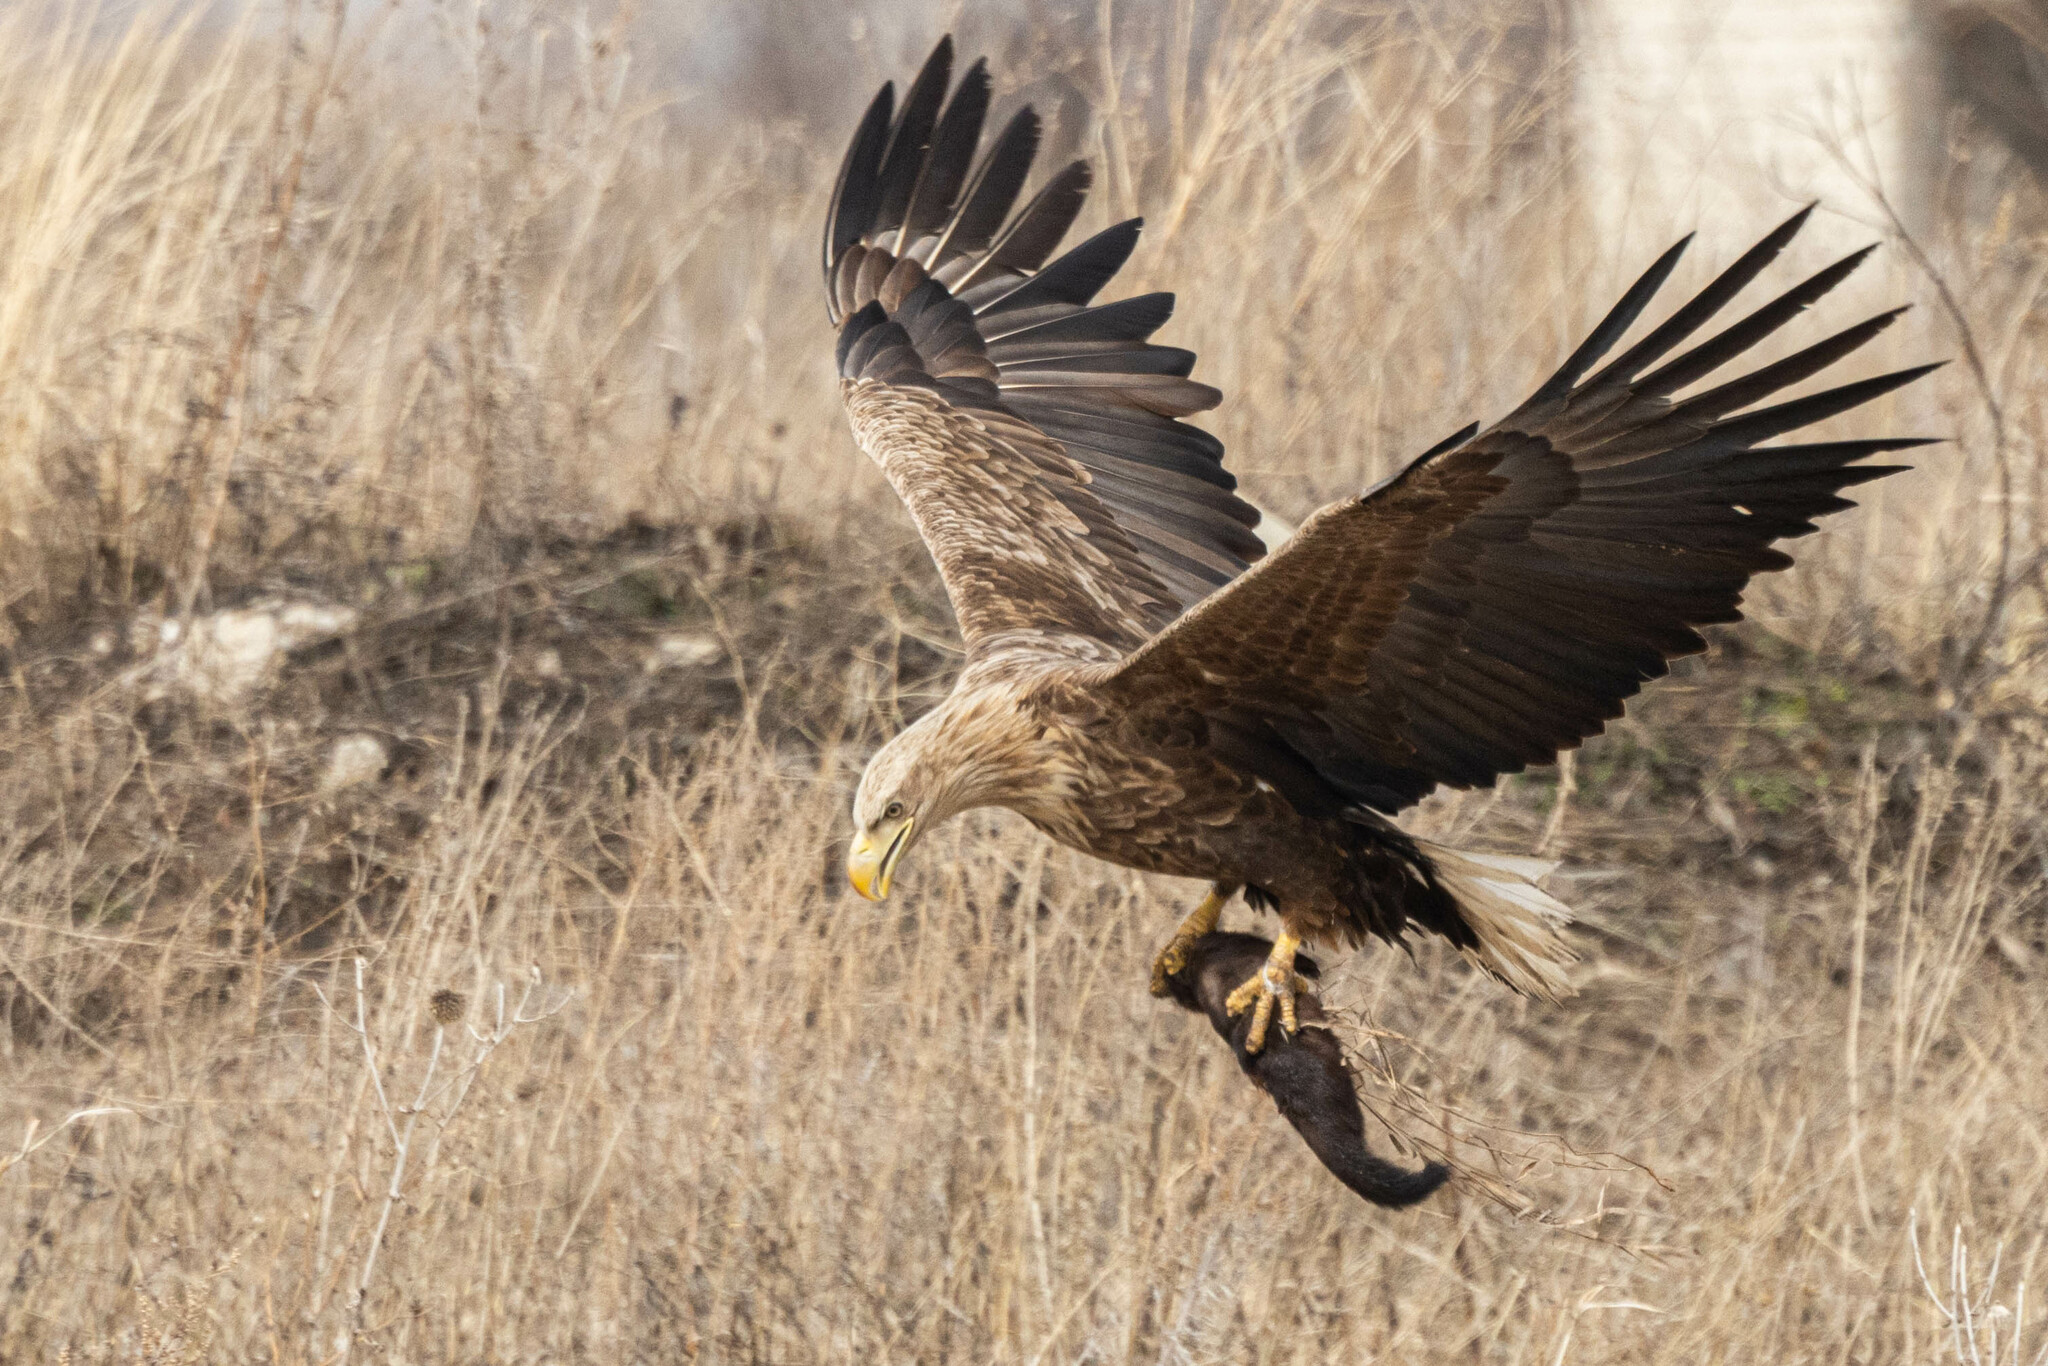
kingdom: Animalia
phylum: Chordata
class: Aves
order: Accipitriformes
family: Accipitridae
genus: Haliaeetus
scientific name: Haliaeetus albicilla
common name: White-tailed eagle
